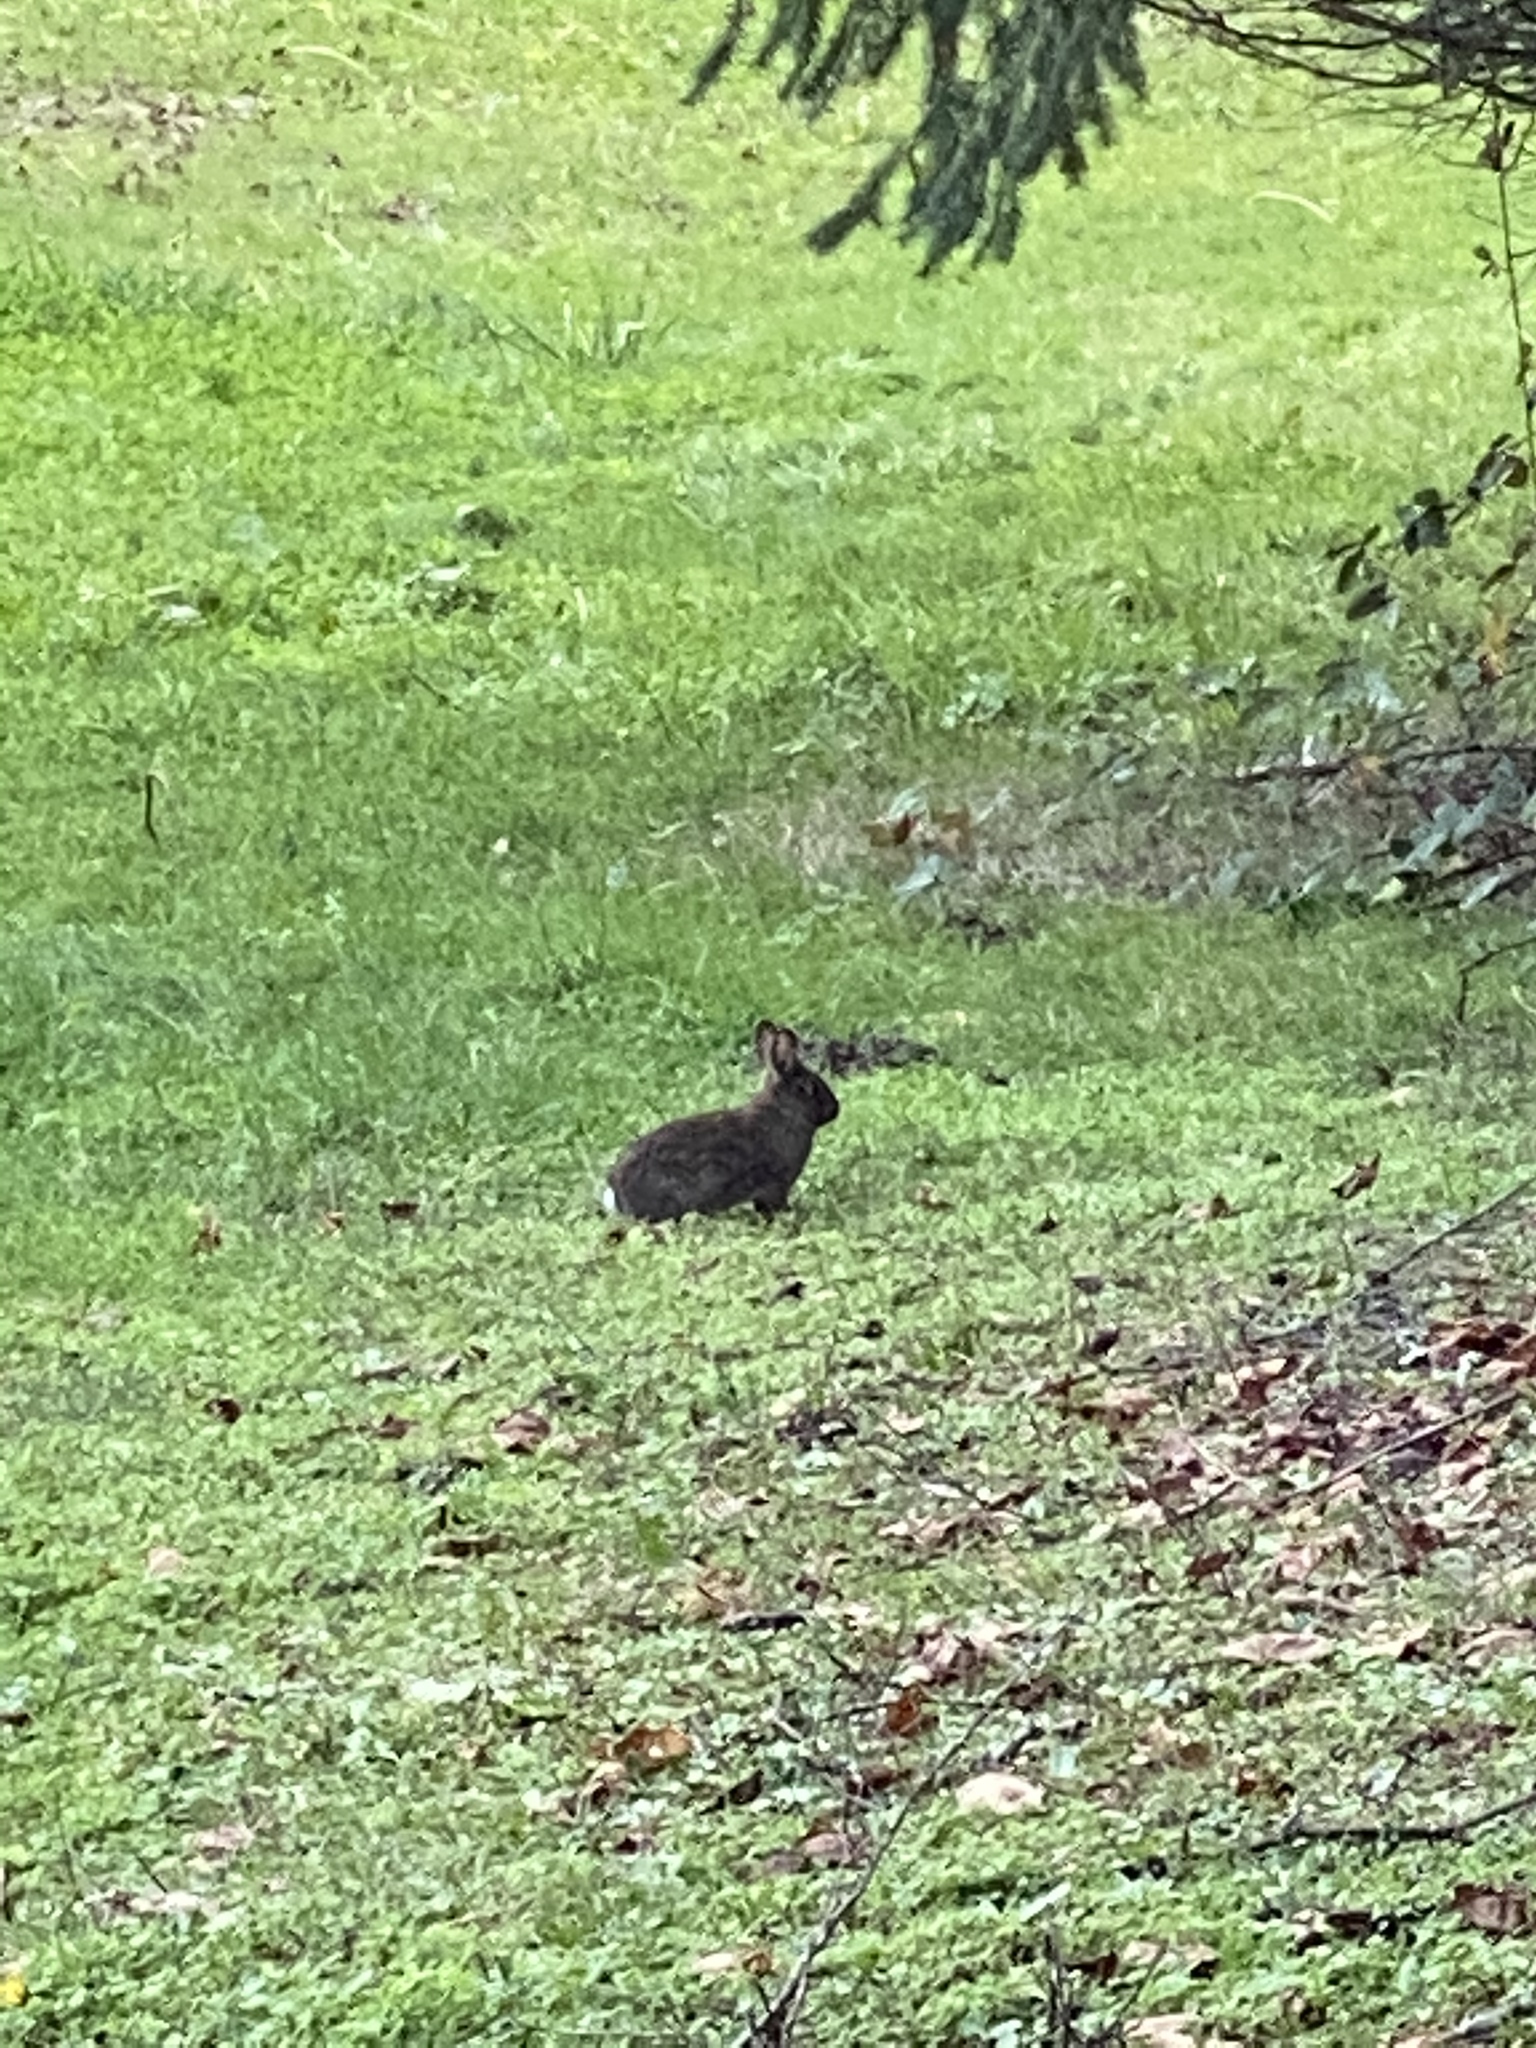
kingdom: Animalia
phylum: Chordata
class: Mammalia
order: Lagomorpha
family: Leporidae
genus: Sylvilagus
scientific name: Sylvilagus bachmani
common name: Brush rabbit
